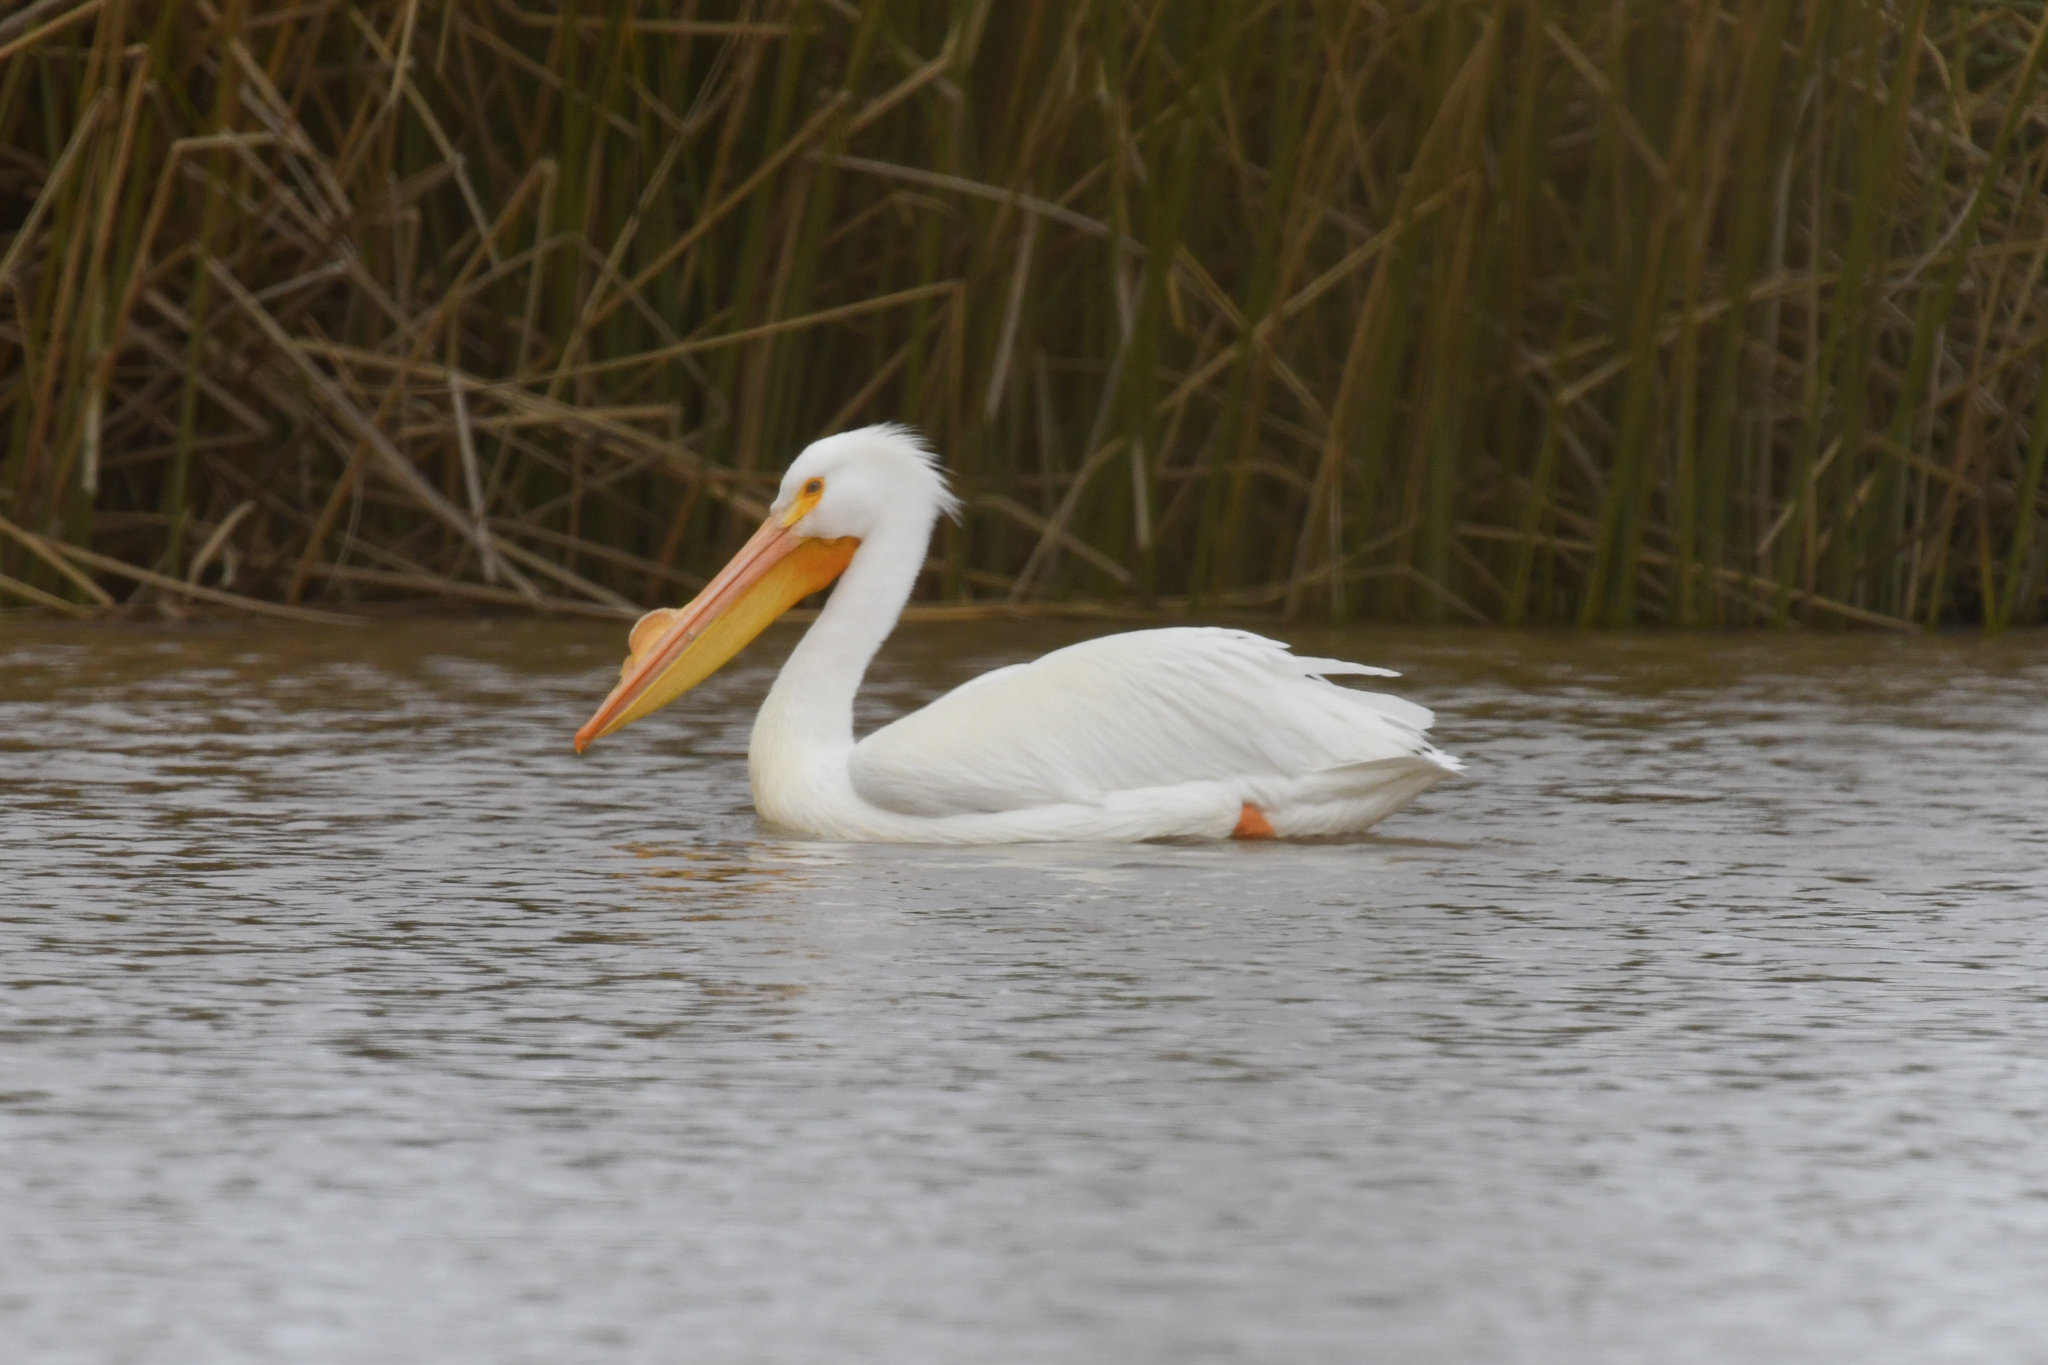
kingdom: Animalia
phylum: Chordata
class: Aves
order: Pelecaniformes
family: Pelecanidae
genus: Pelecanus
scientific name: Pelecanus erythrorhynchos
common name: American white pelican
